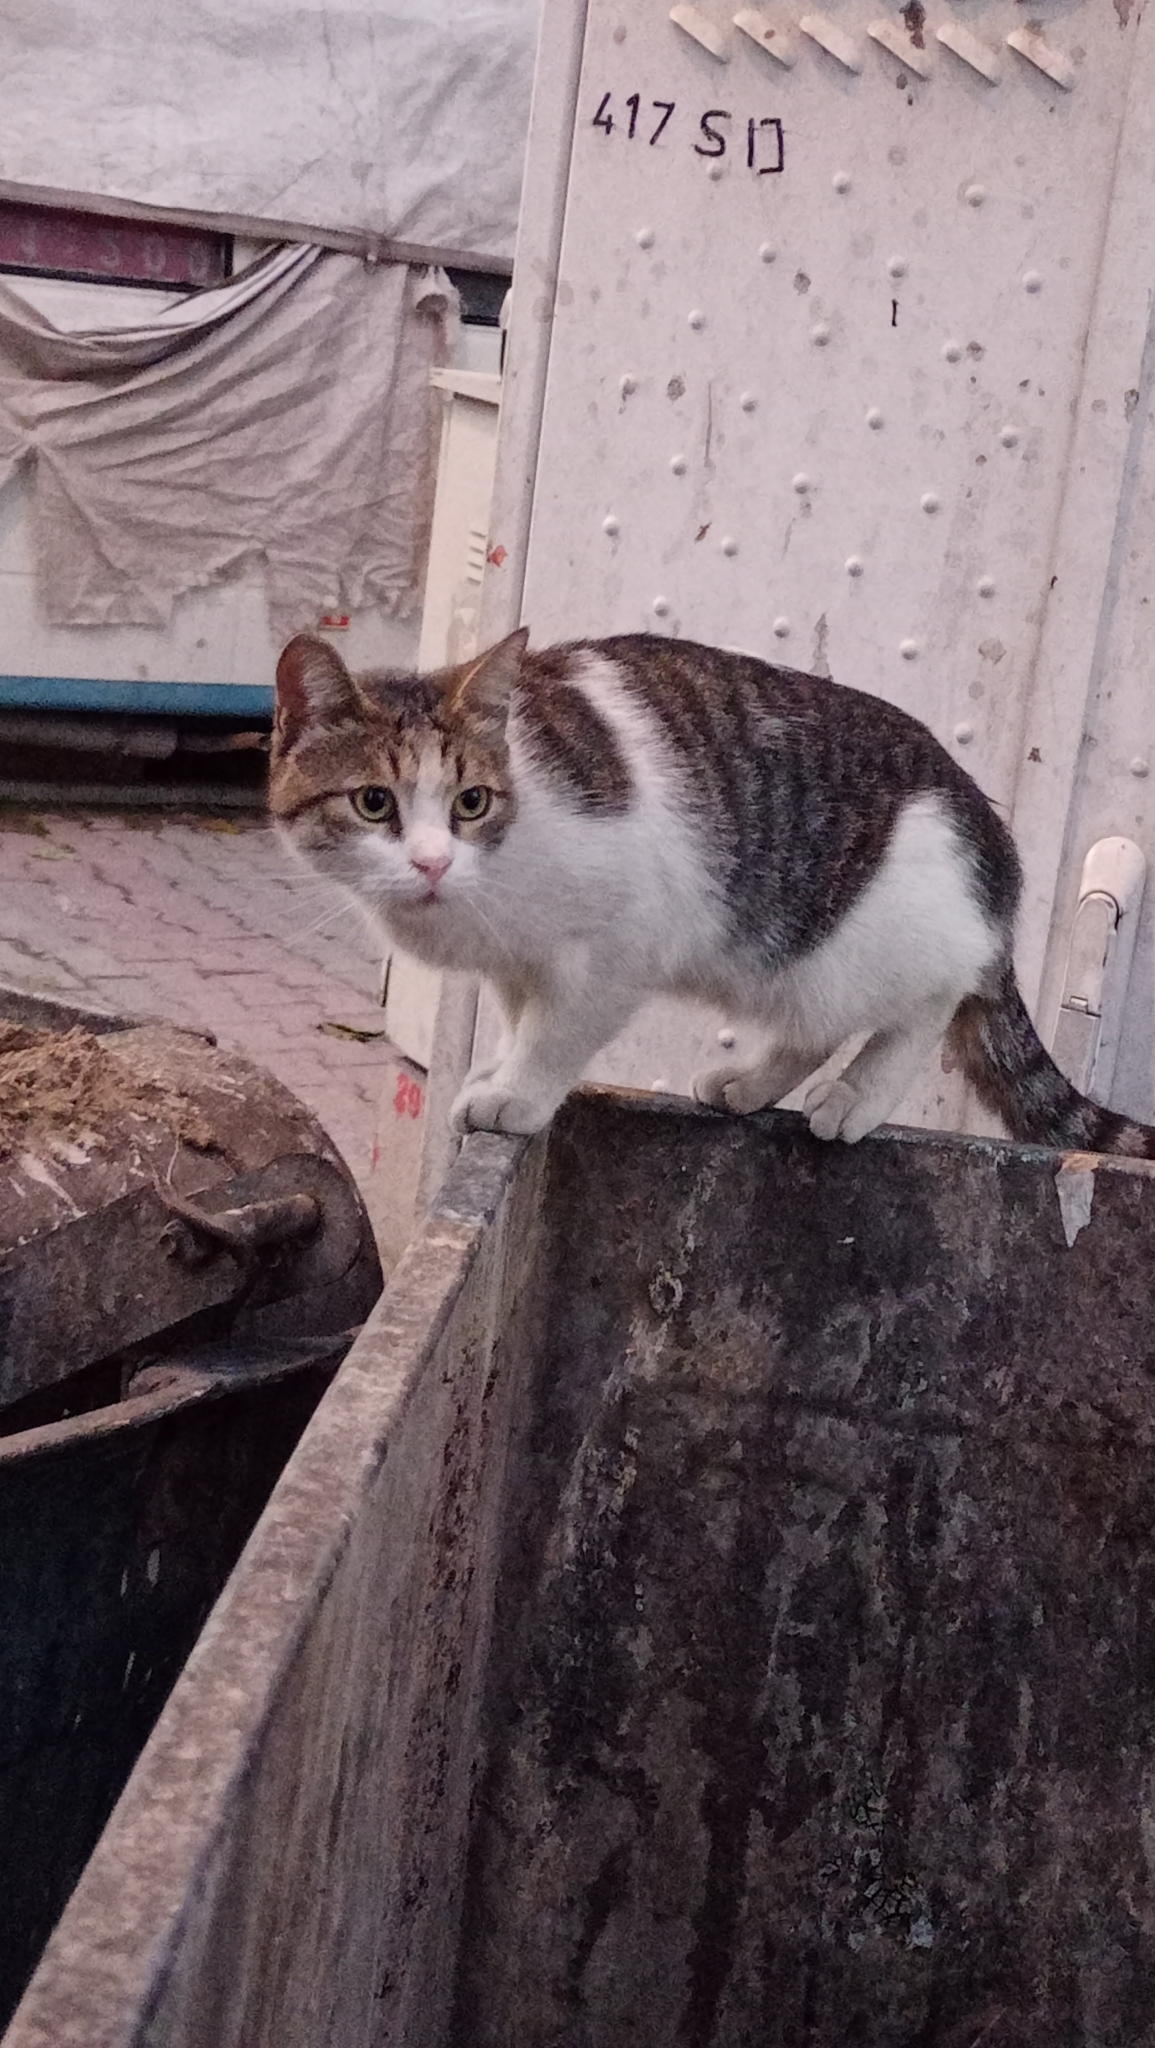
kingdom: Animalia
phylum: Chordata
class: Mammalia
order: Carnivora
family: Felidae
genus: Felis
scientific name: Felis catus
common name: Domestic cat
